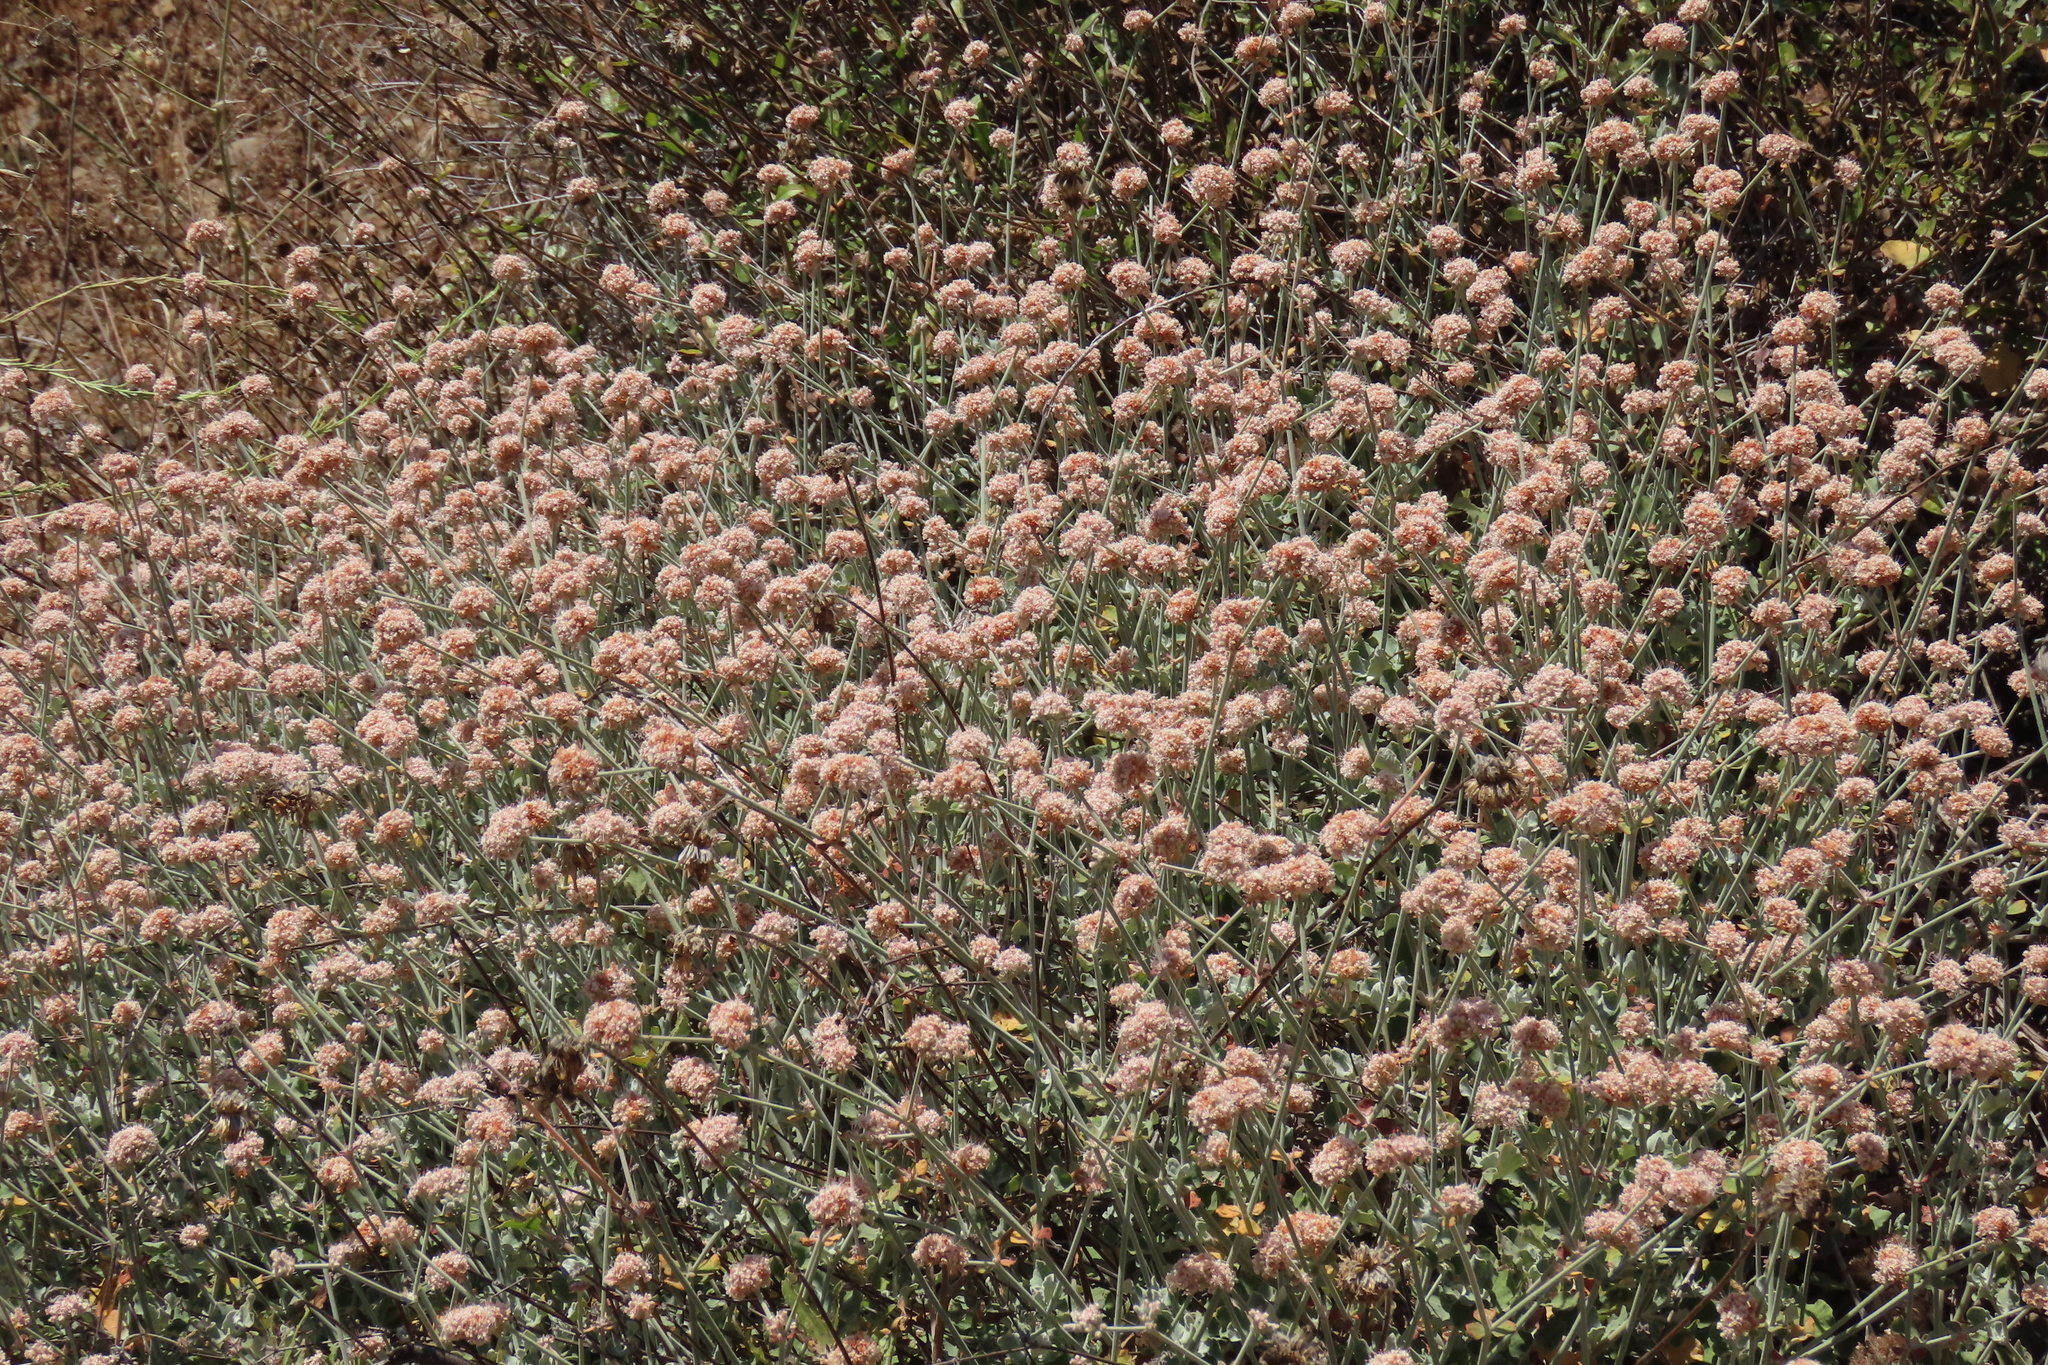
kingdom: Plantae
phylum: Tracheophyta
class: Magnoliopsida
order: Caryophyllales
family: Polygonaceae
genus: Eriogonum
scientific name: Eriogonum cinereum
